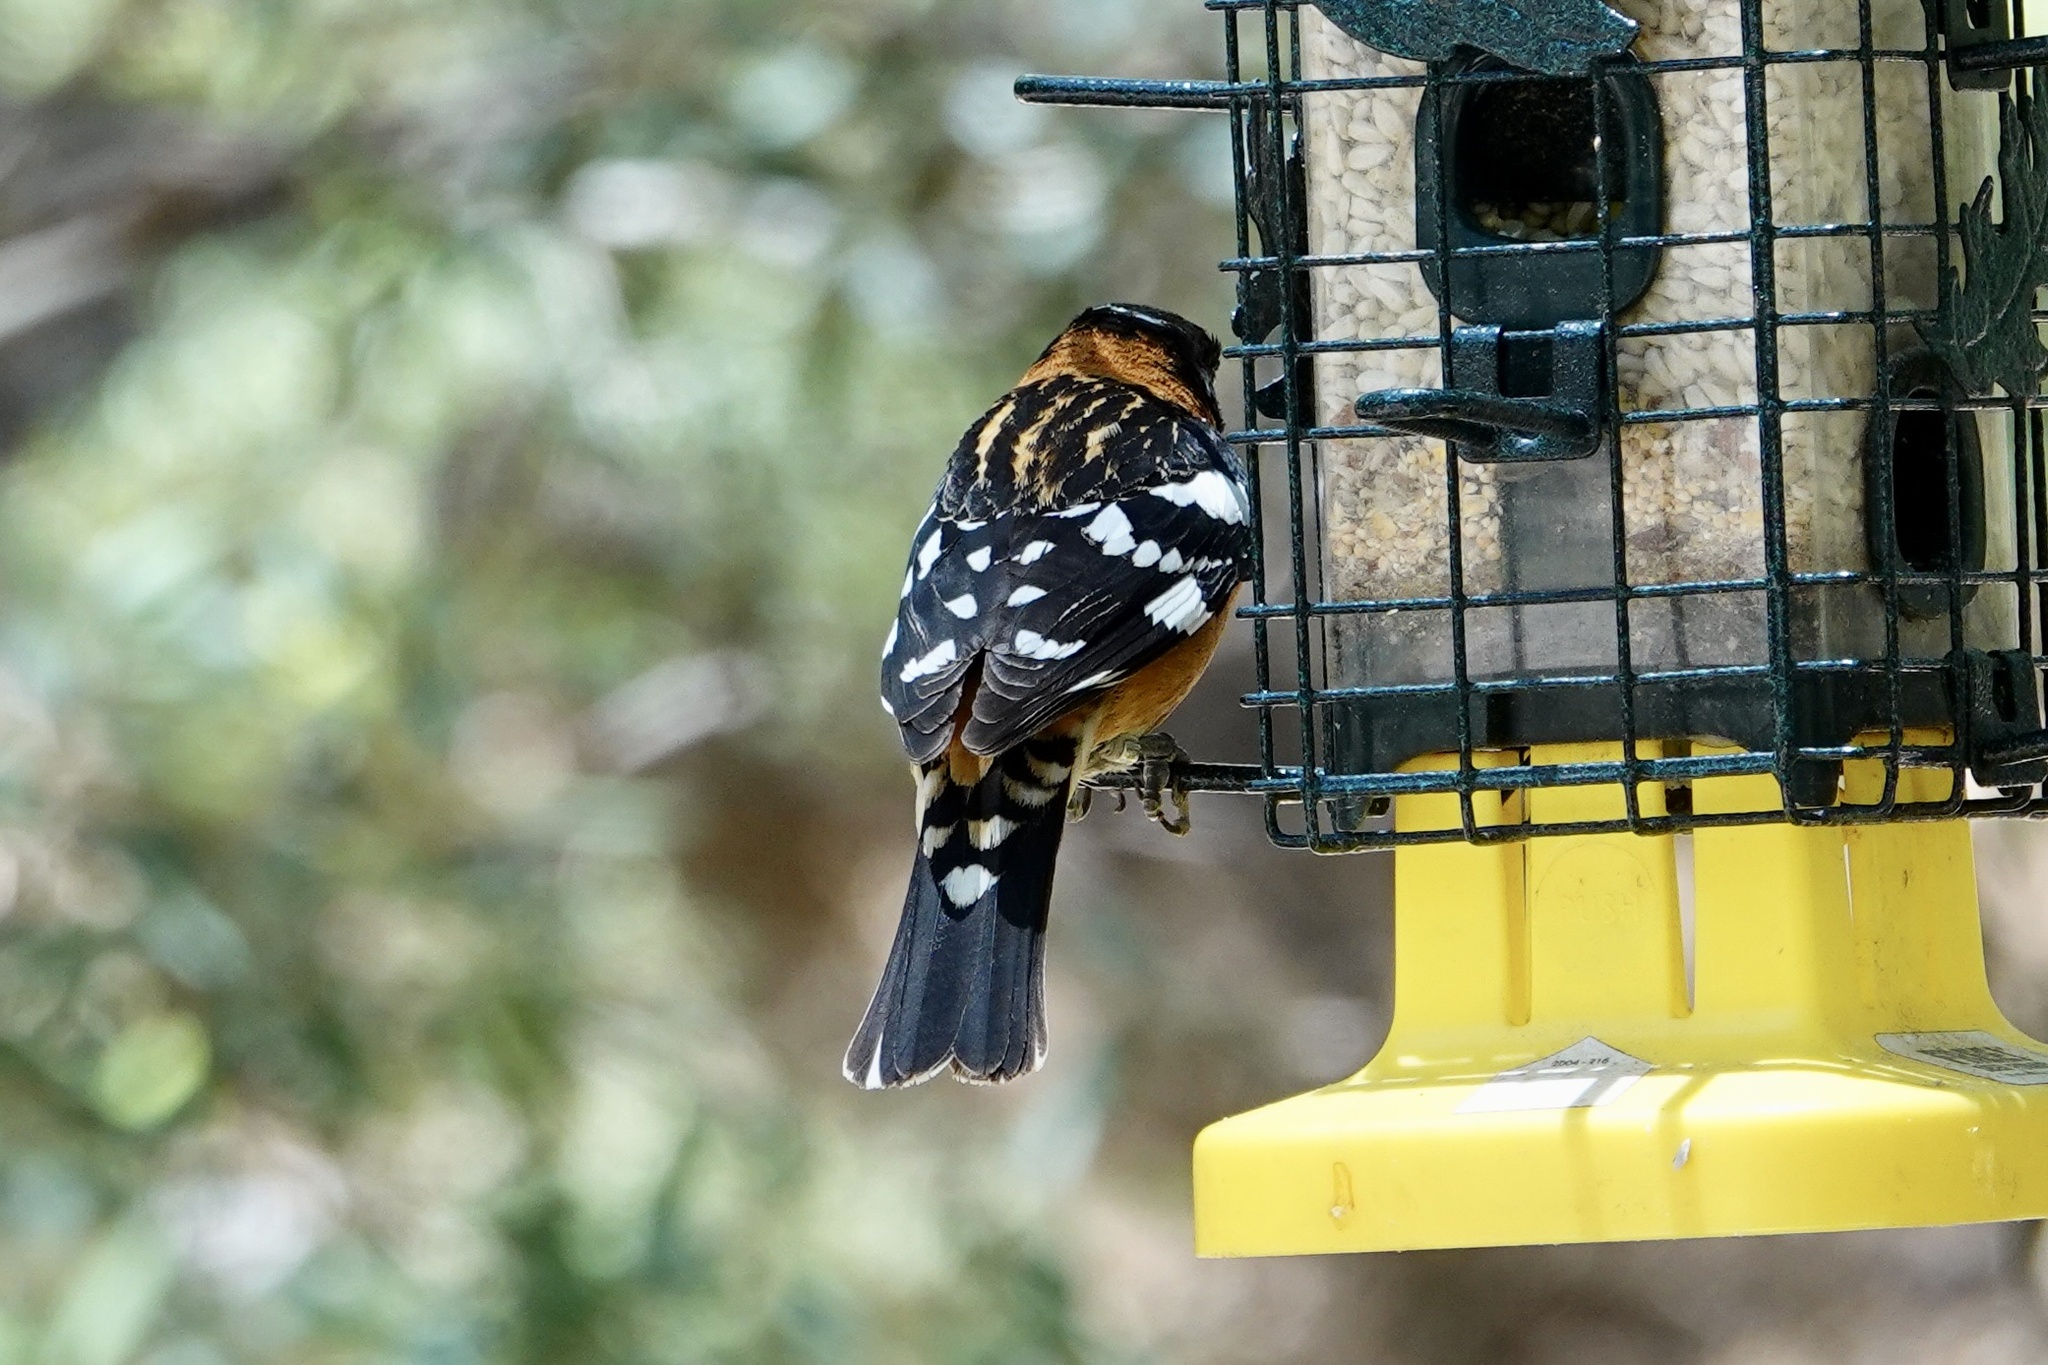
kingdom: Animalia
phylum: Chordata
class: Aves
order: Passeriformes
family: Cardinalidae
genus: Pheucticus
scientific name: Pheucticus melanocephalus
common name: Black-headed grosbeak
